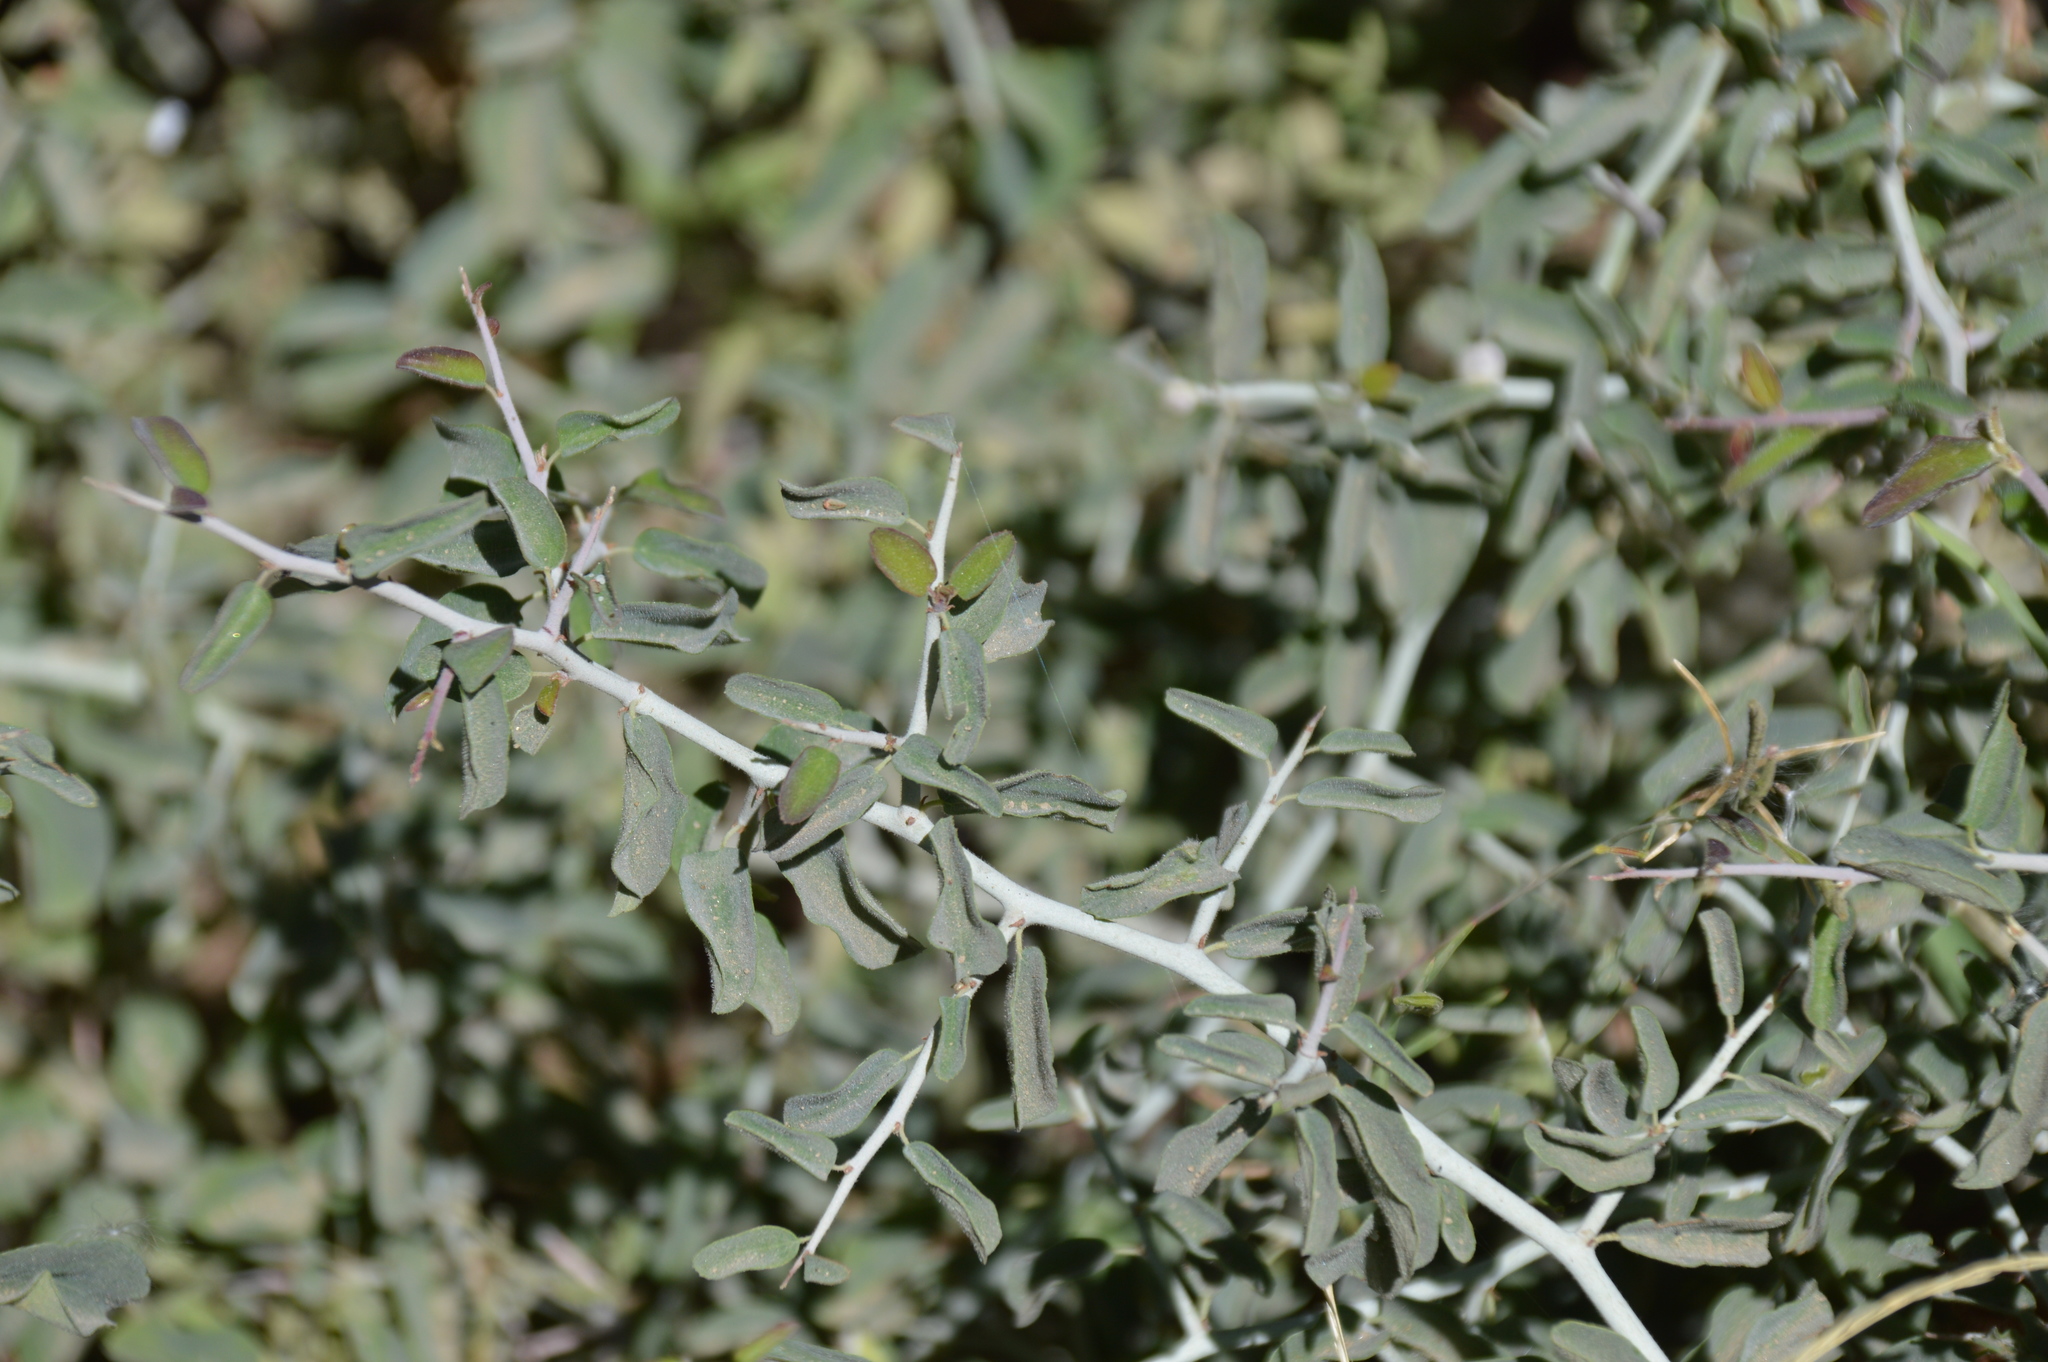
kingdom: Plantae
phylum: Tracheophyta
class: Magnoliopsida
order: Rosales
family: Rhamnaceae
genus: Ceanothus
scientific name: Ceanothus cordulatus
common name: Mountain whitethorn
